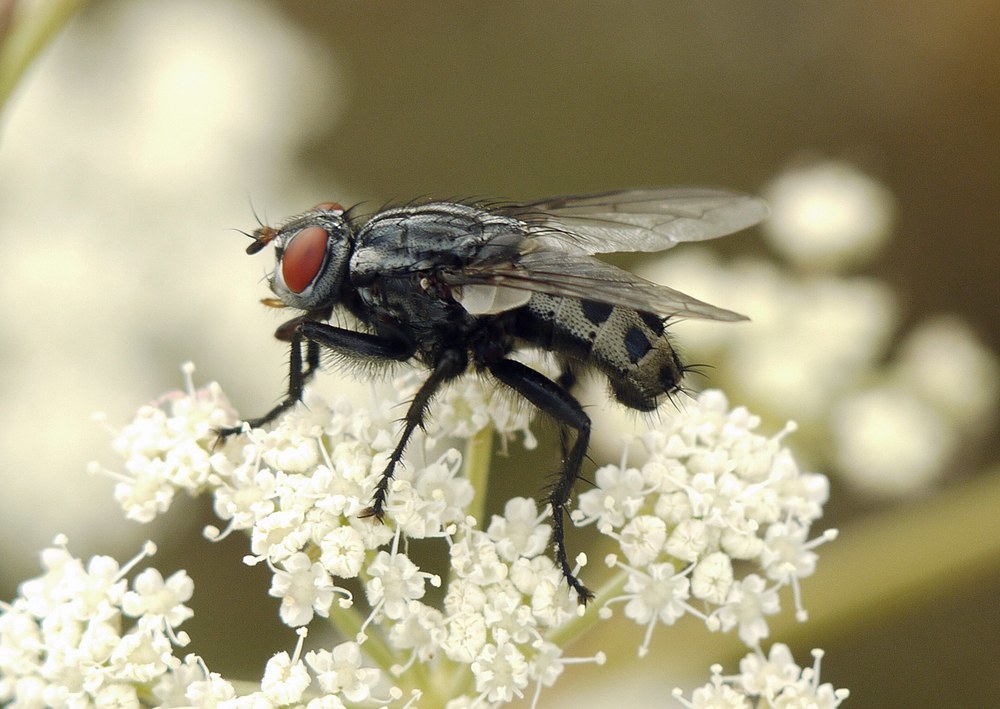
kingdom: Animalia
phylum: Arthropoda
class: Insecta
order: Diptera
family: Sarcophagidae
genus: Wohlfahrtia
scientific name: Wohlfahrtia vigil
